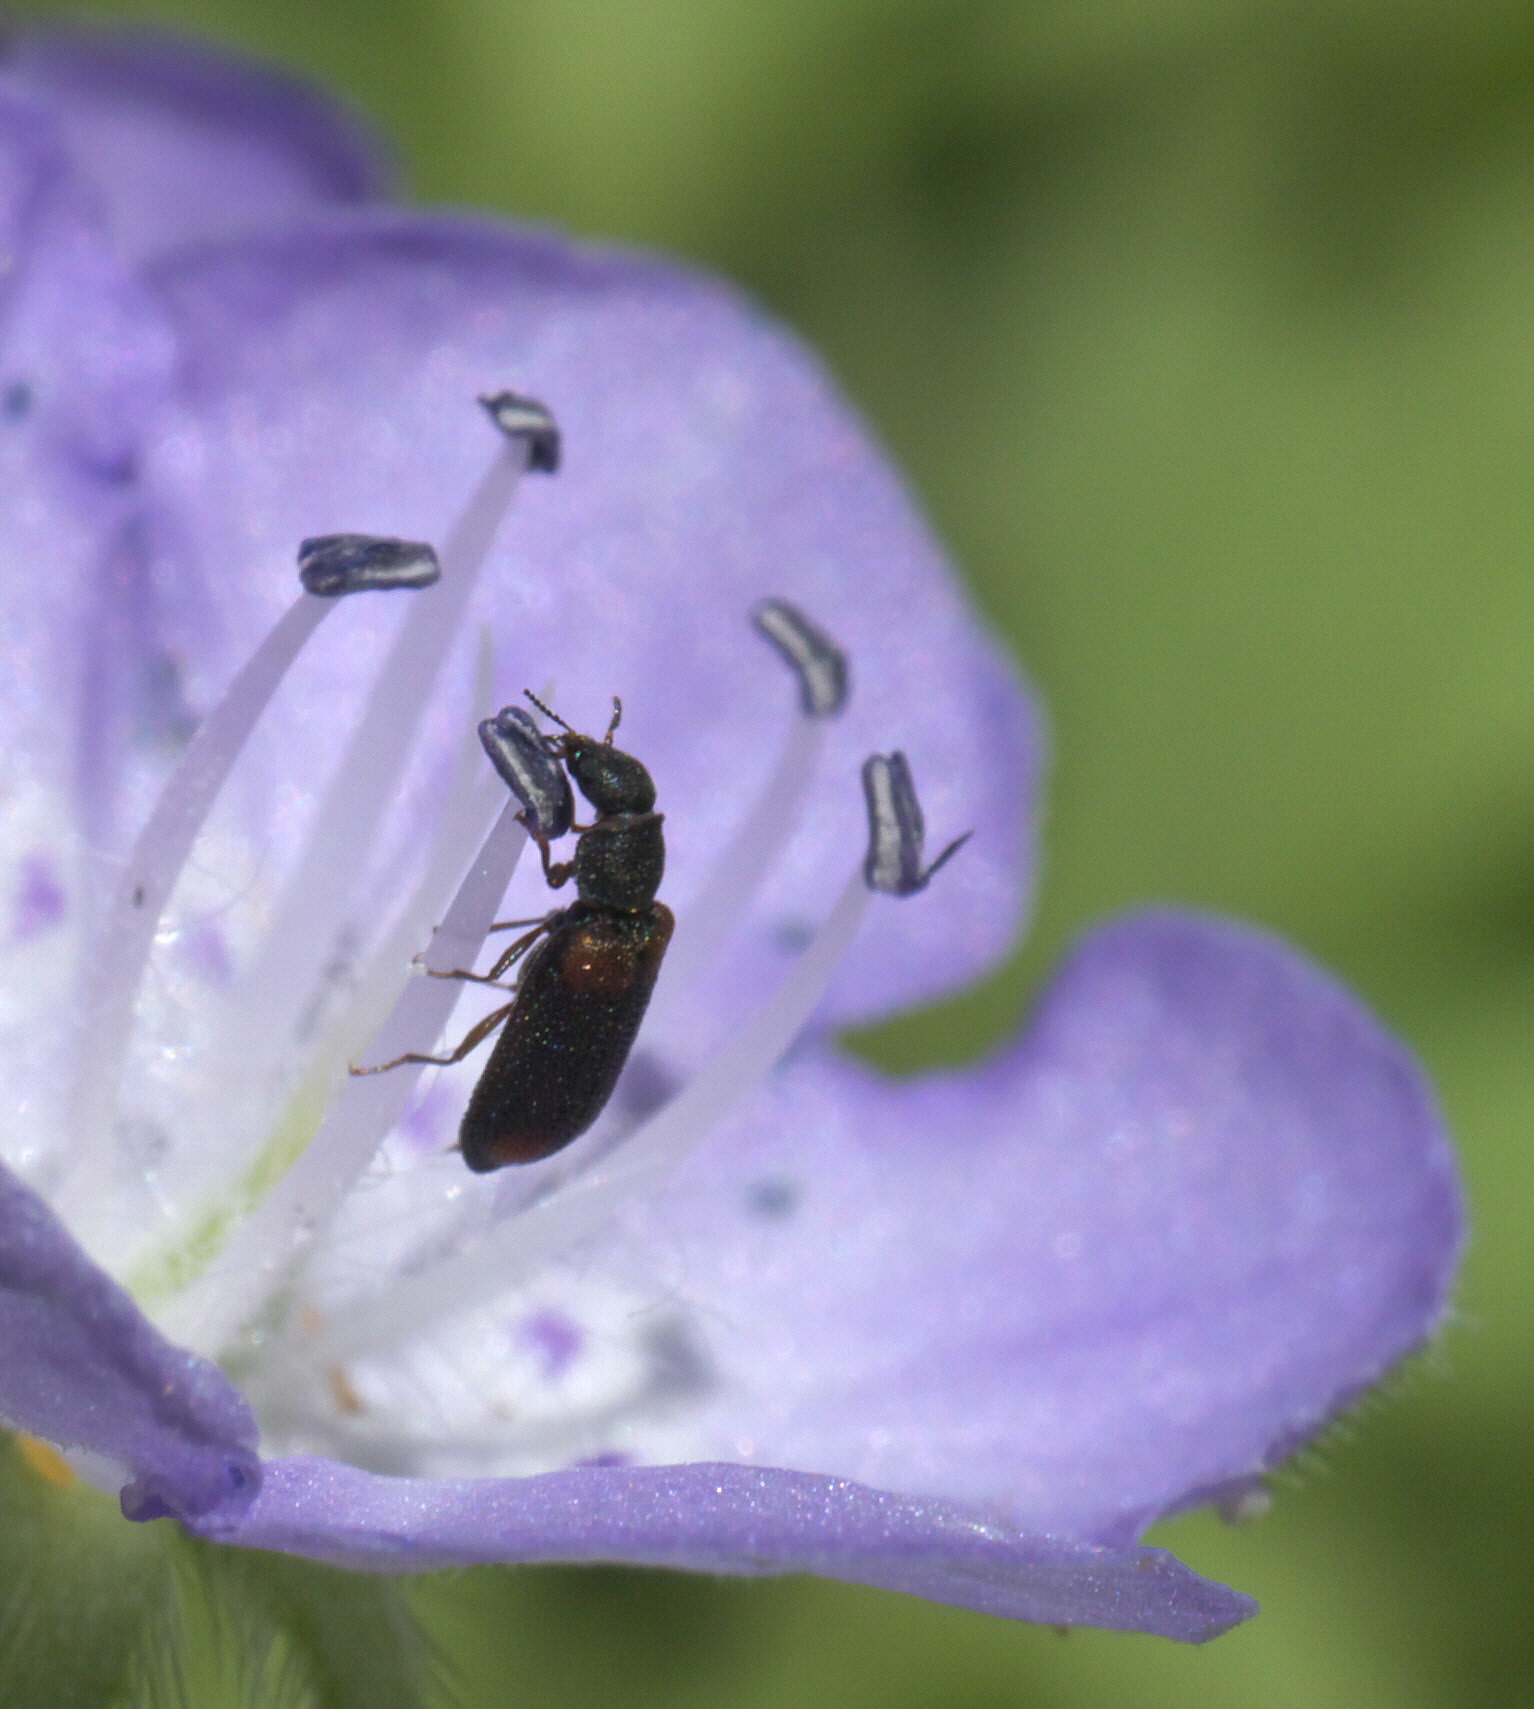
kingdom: Animalia
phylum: Arthropoda
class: Insecta
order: Coleoptera
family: Melyridae
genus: Melyrodes
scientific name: Melyrodes
